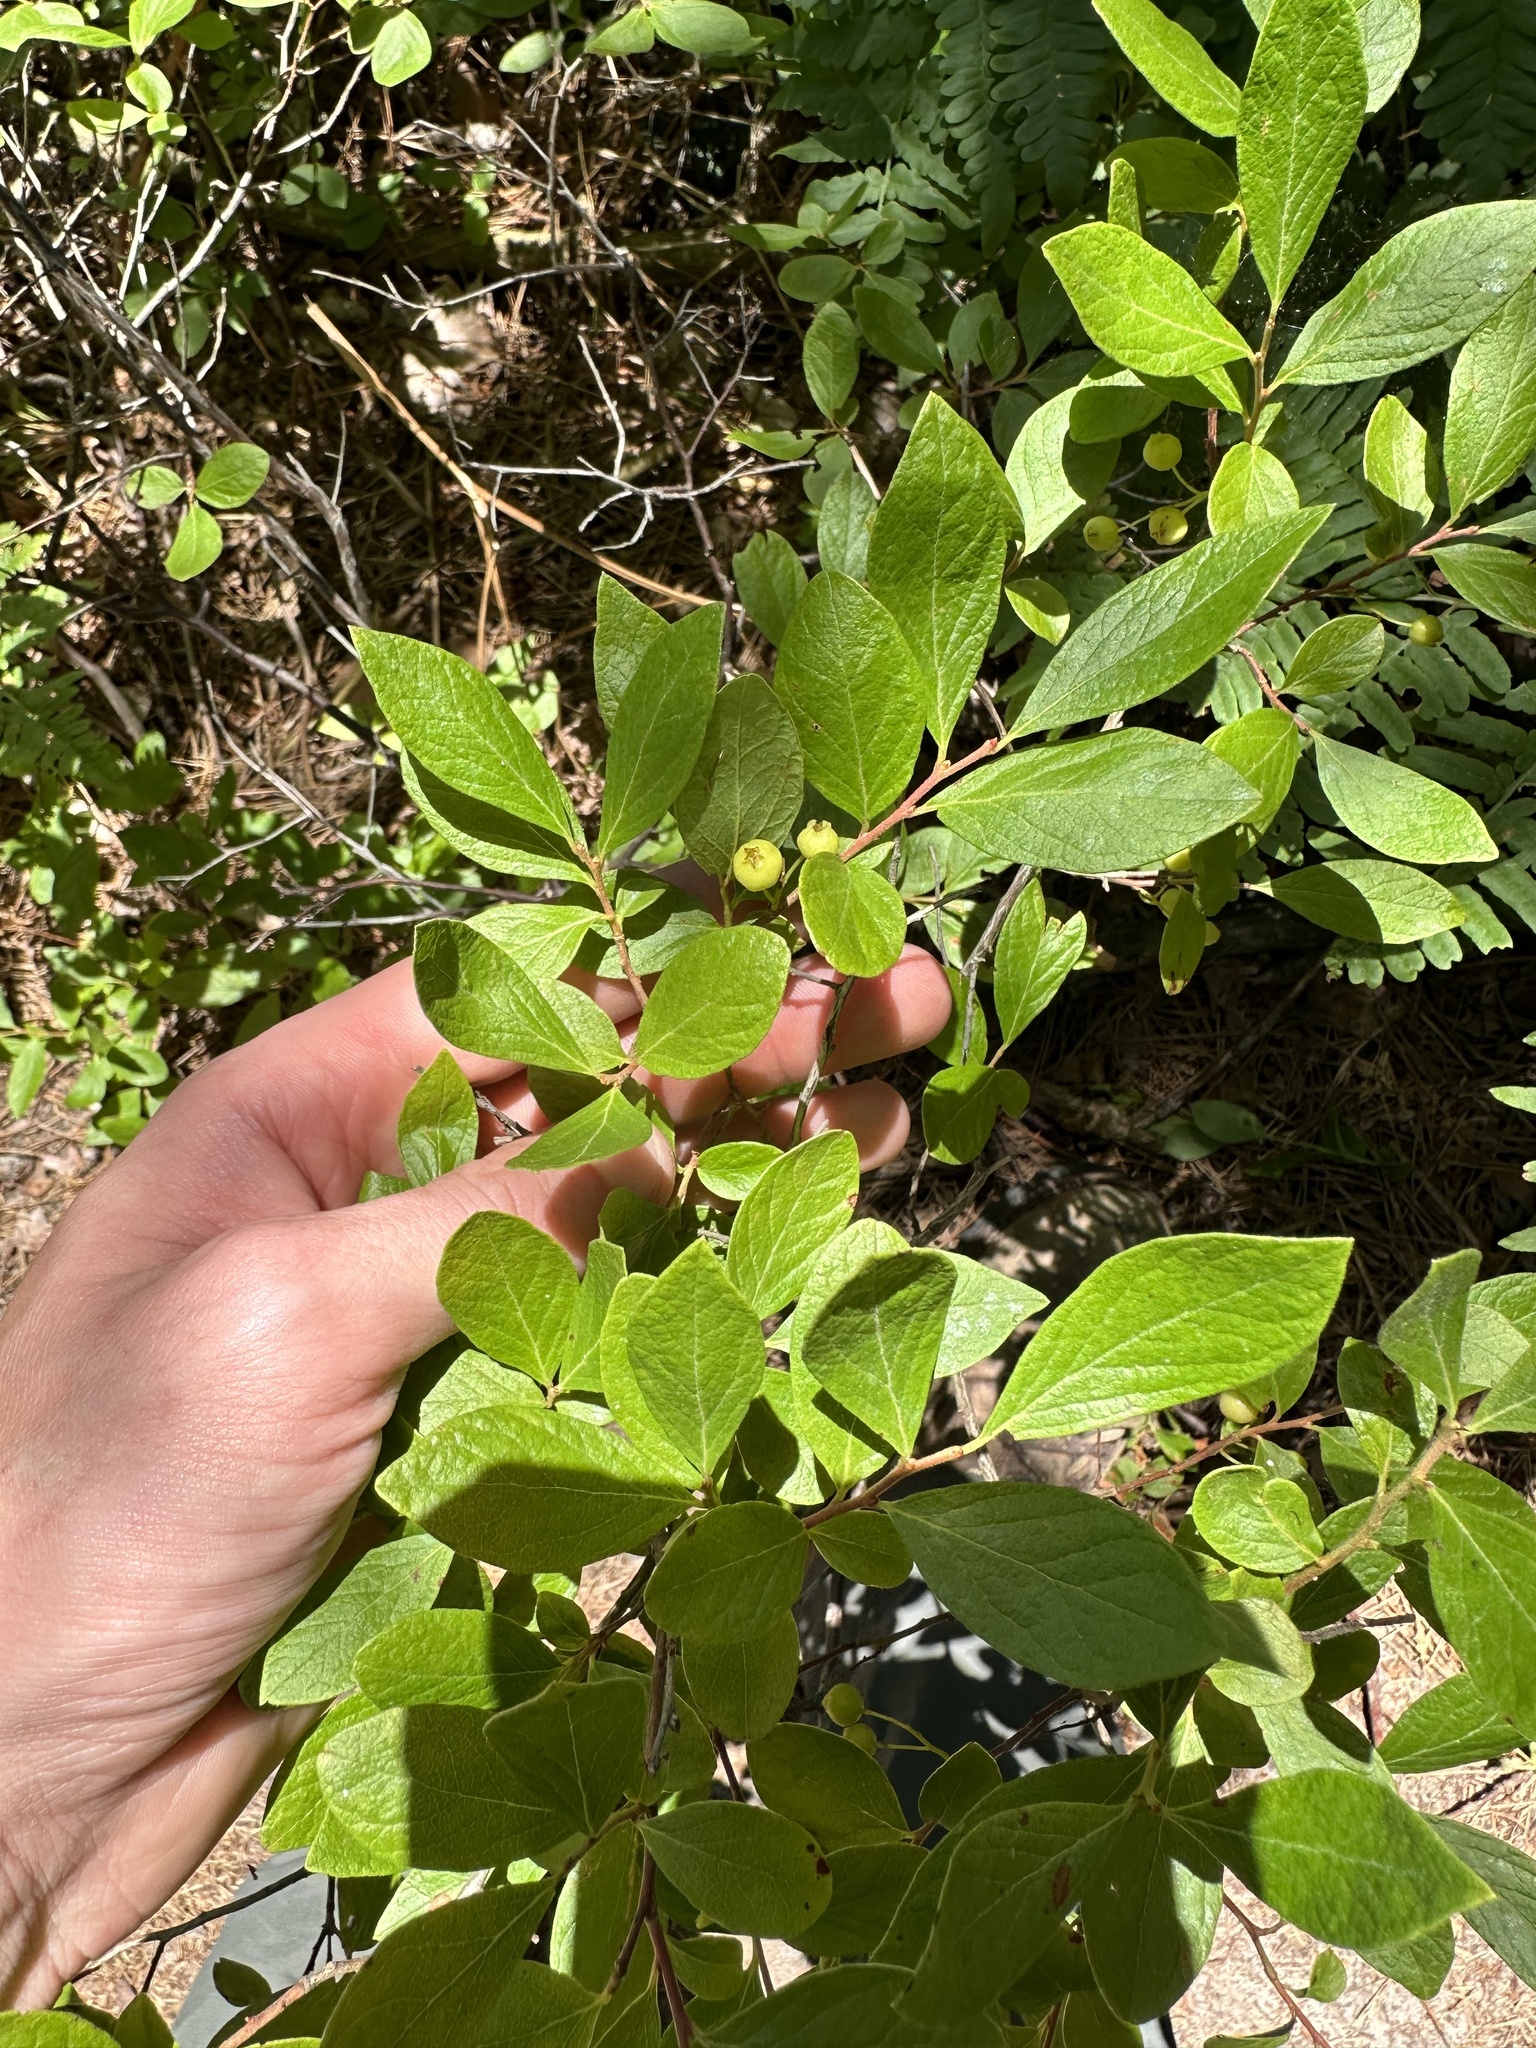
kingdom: Plantae
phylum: Tracheophyta
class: Magnoliopsida
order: Ericales
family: Ericaceae
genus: Gaylussacia
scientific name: Gaylussacia baccata
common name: Black huckleberry
